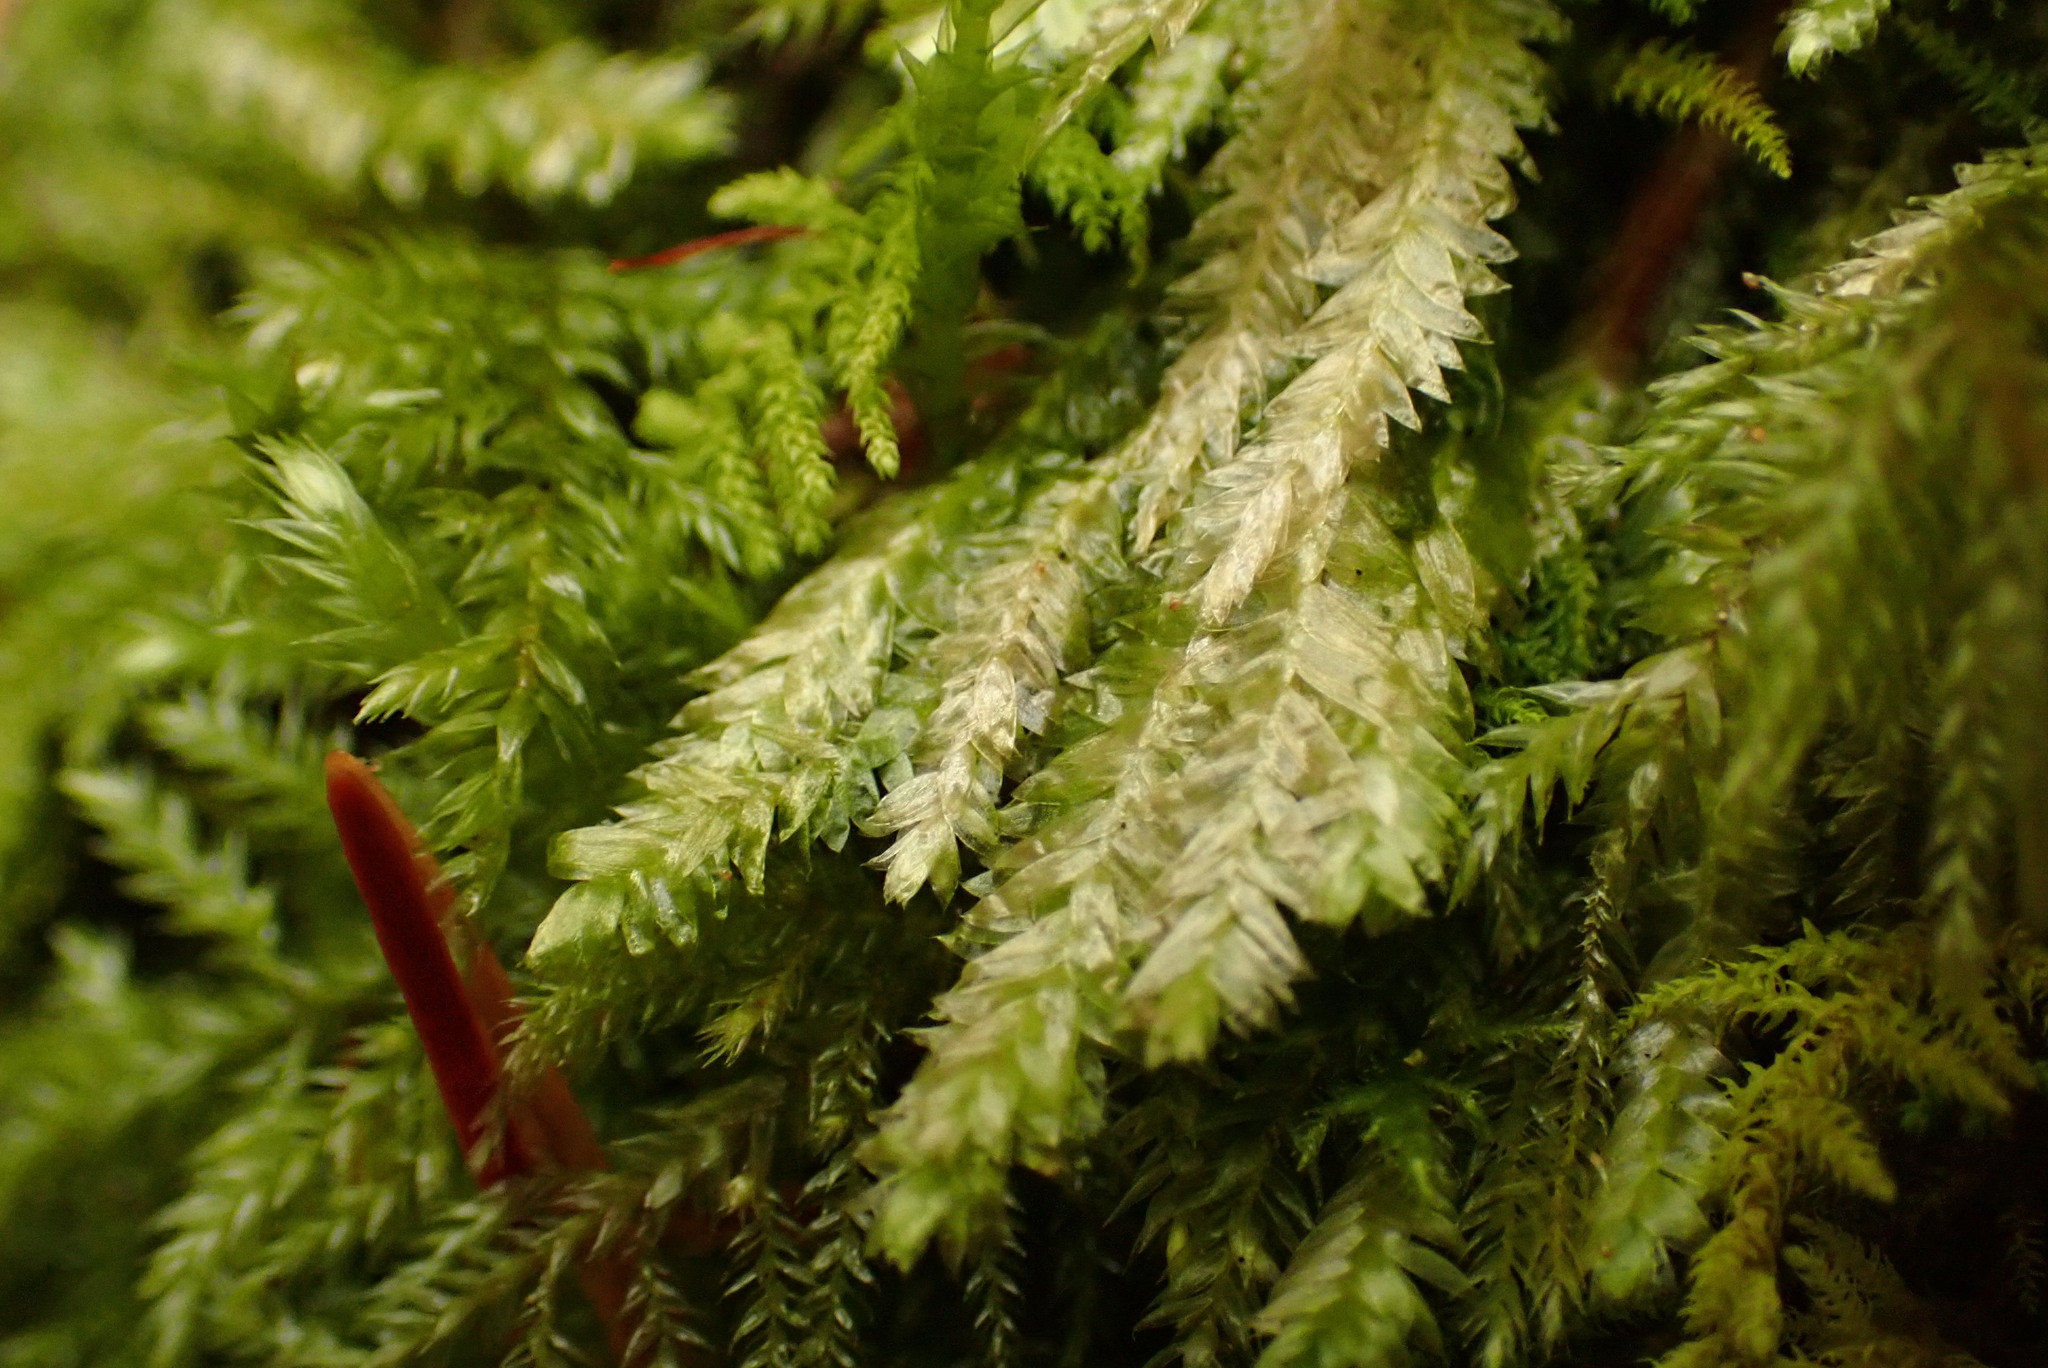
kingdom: Plantae
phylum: Bryophyta
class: Bryopsida
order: Hypnales
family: Plagiotheciaceae
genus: Plagiothecium
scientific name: Plagiothecium laetum
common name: Bright silk moss
